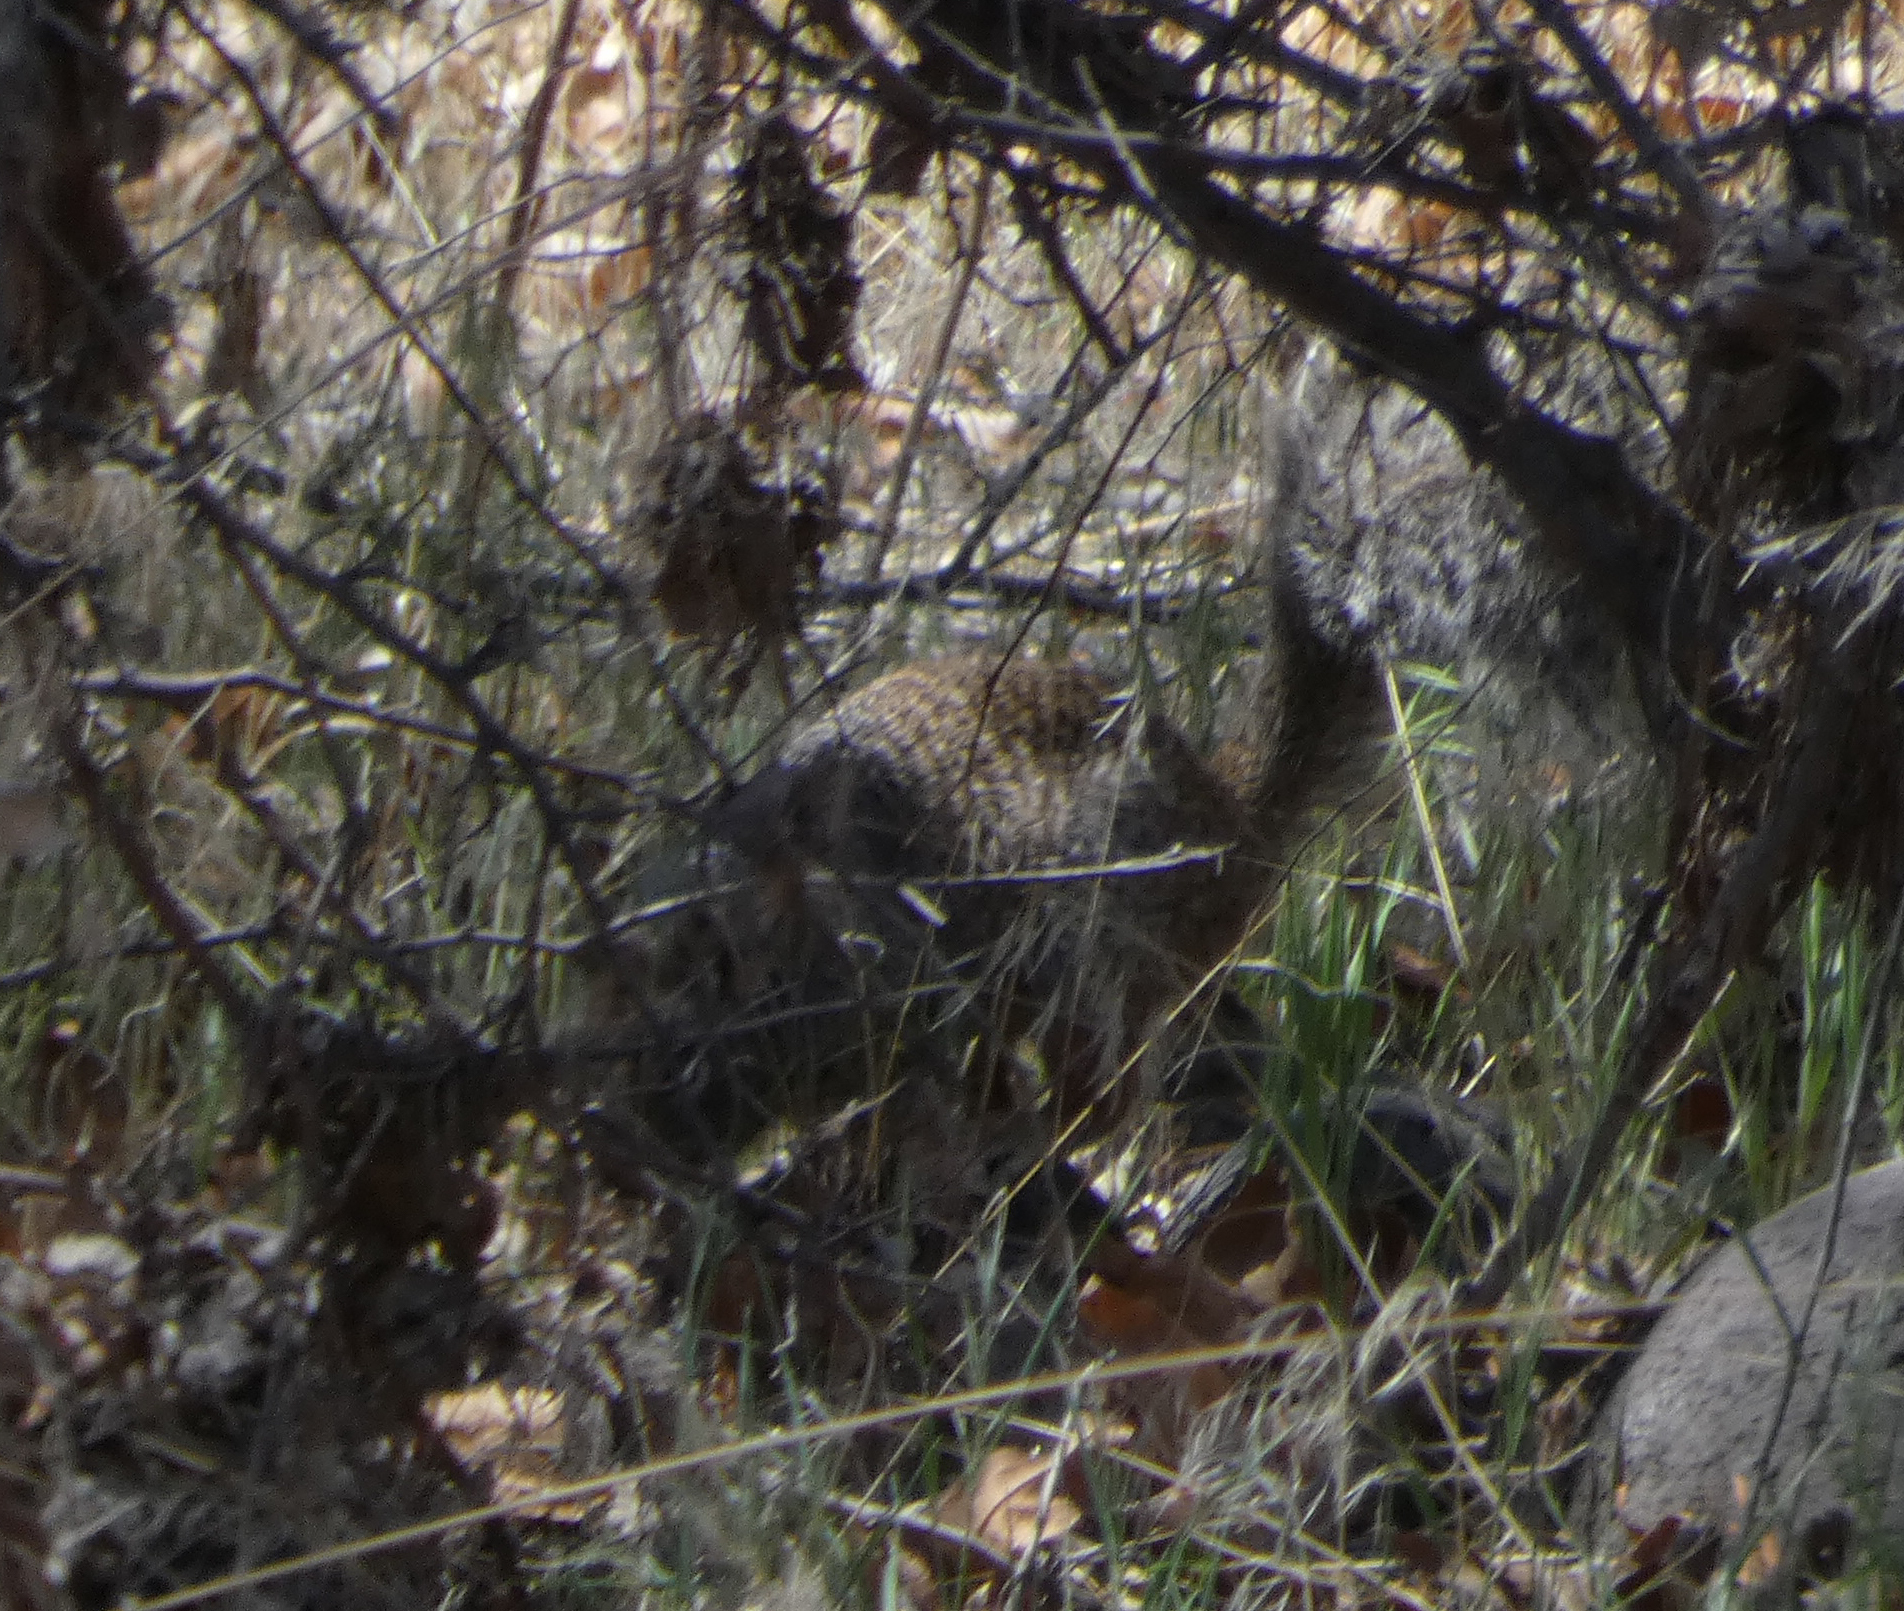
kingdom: Animalia
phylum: Chordata
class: Mammalia
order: Rodentia
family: Sciuridae
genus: Otospermophilus
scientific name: Otospermophilus variegatus
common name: Rock squirrel
